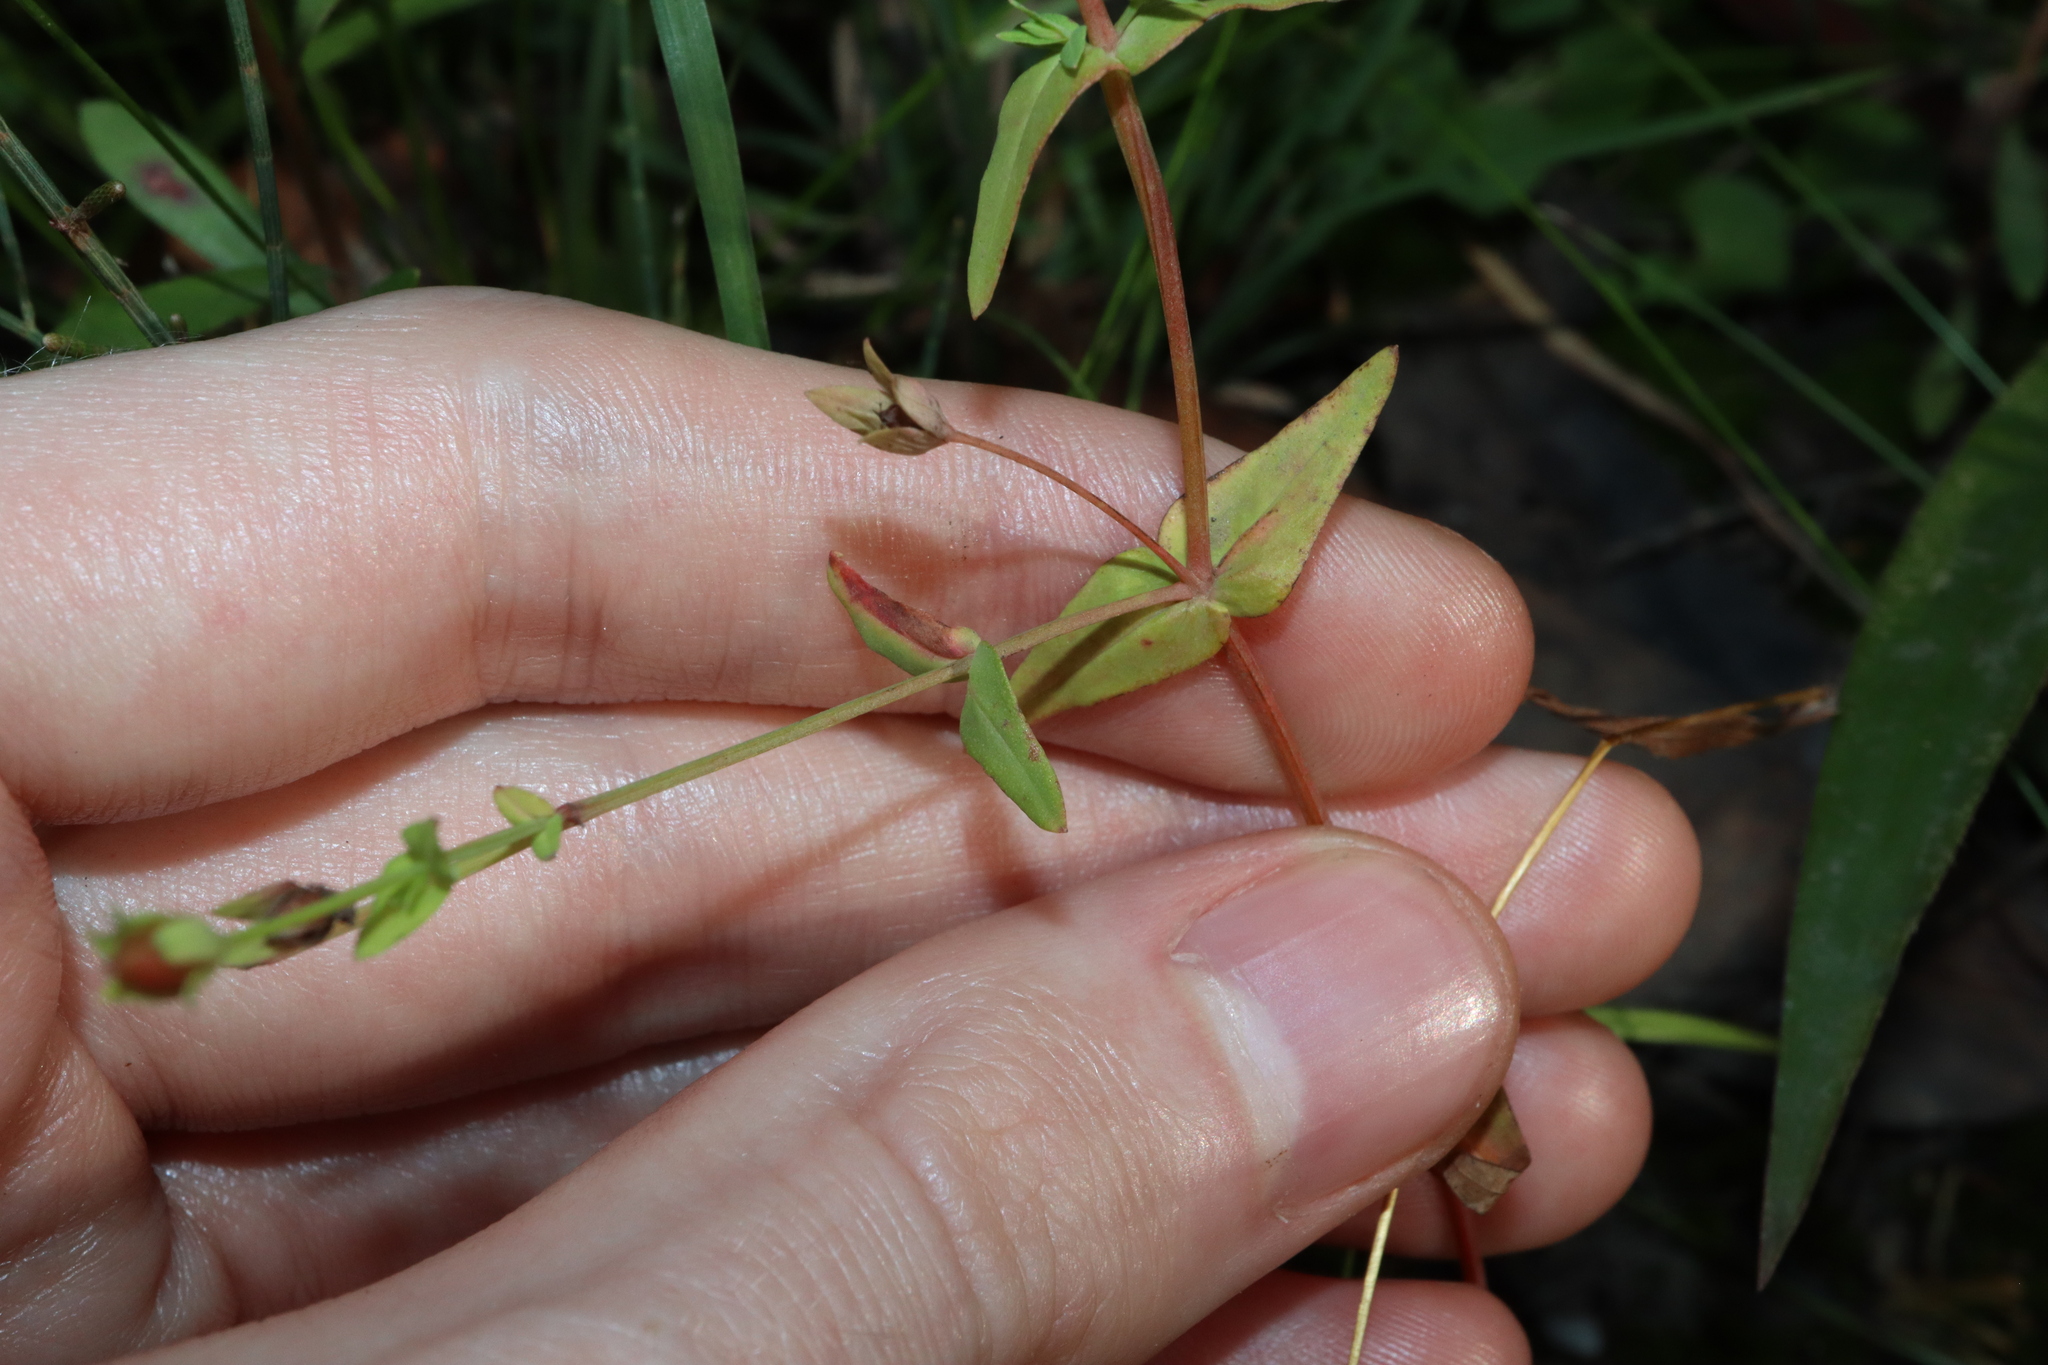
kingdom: Plantae
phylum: Tracheophyta
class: Magnoliopsida
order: Malpighiales
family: Hypericaceae
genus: Hypericum
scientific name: Hypericum gramineum
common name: Grassy st. johnswort
